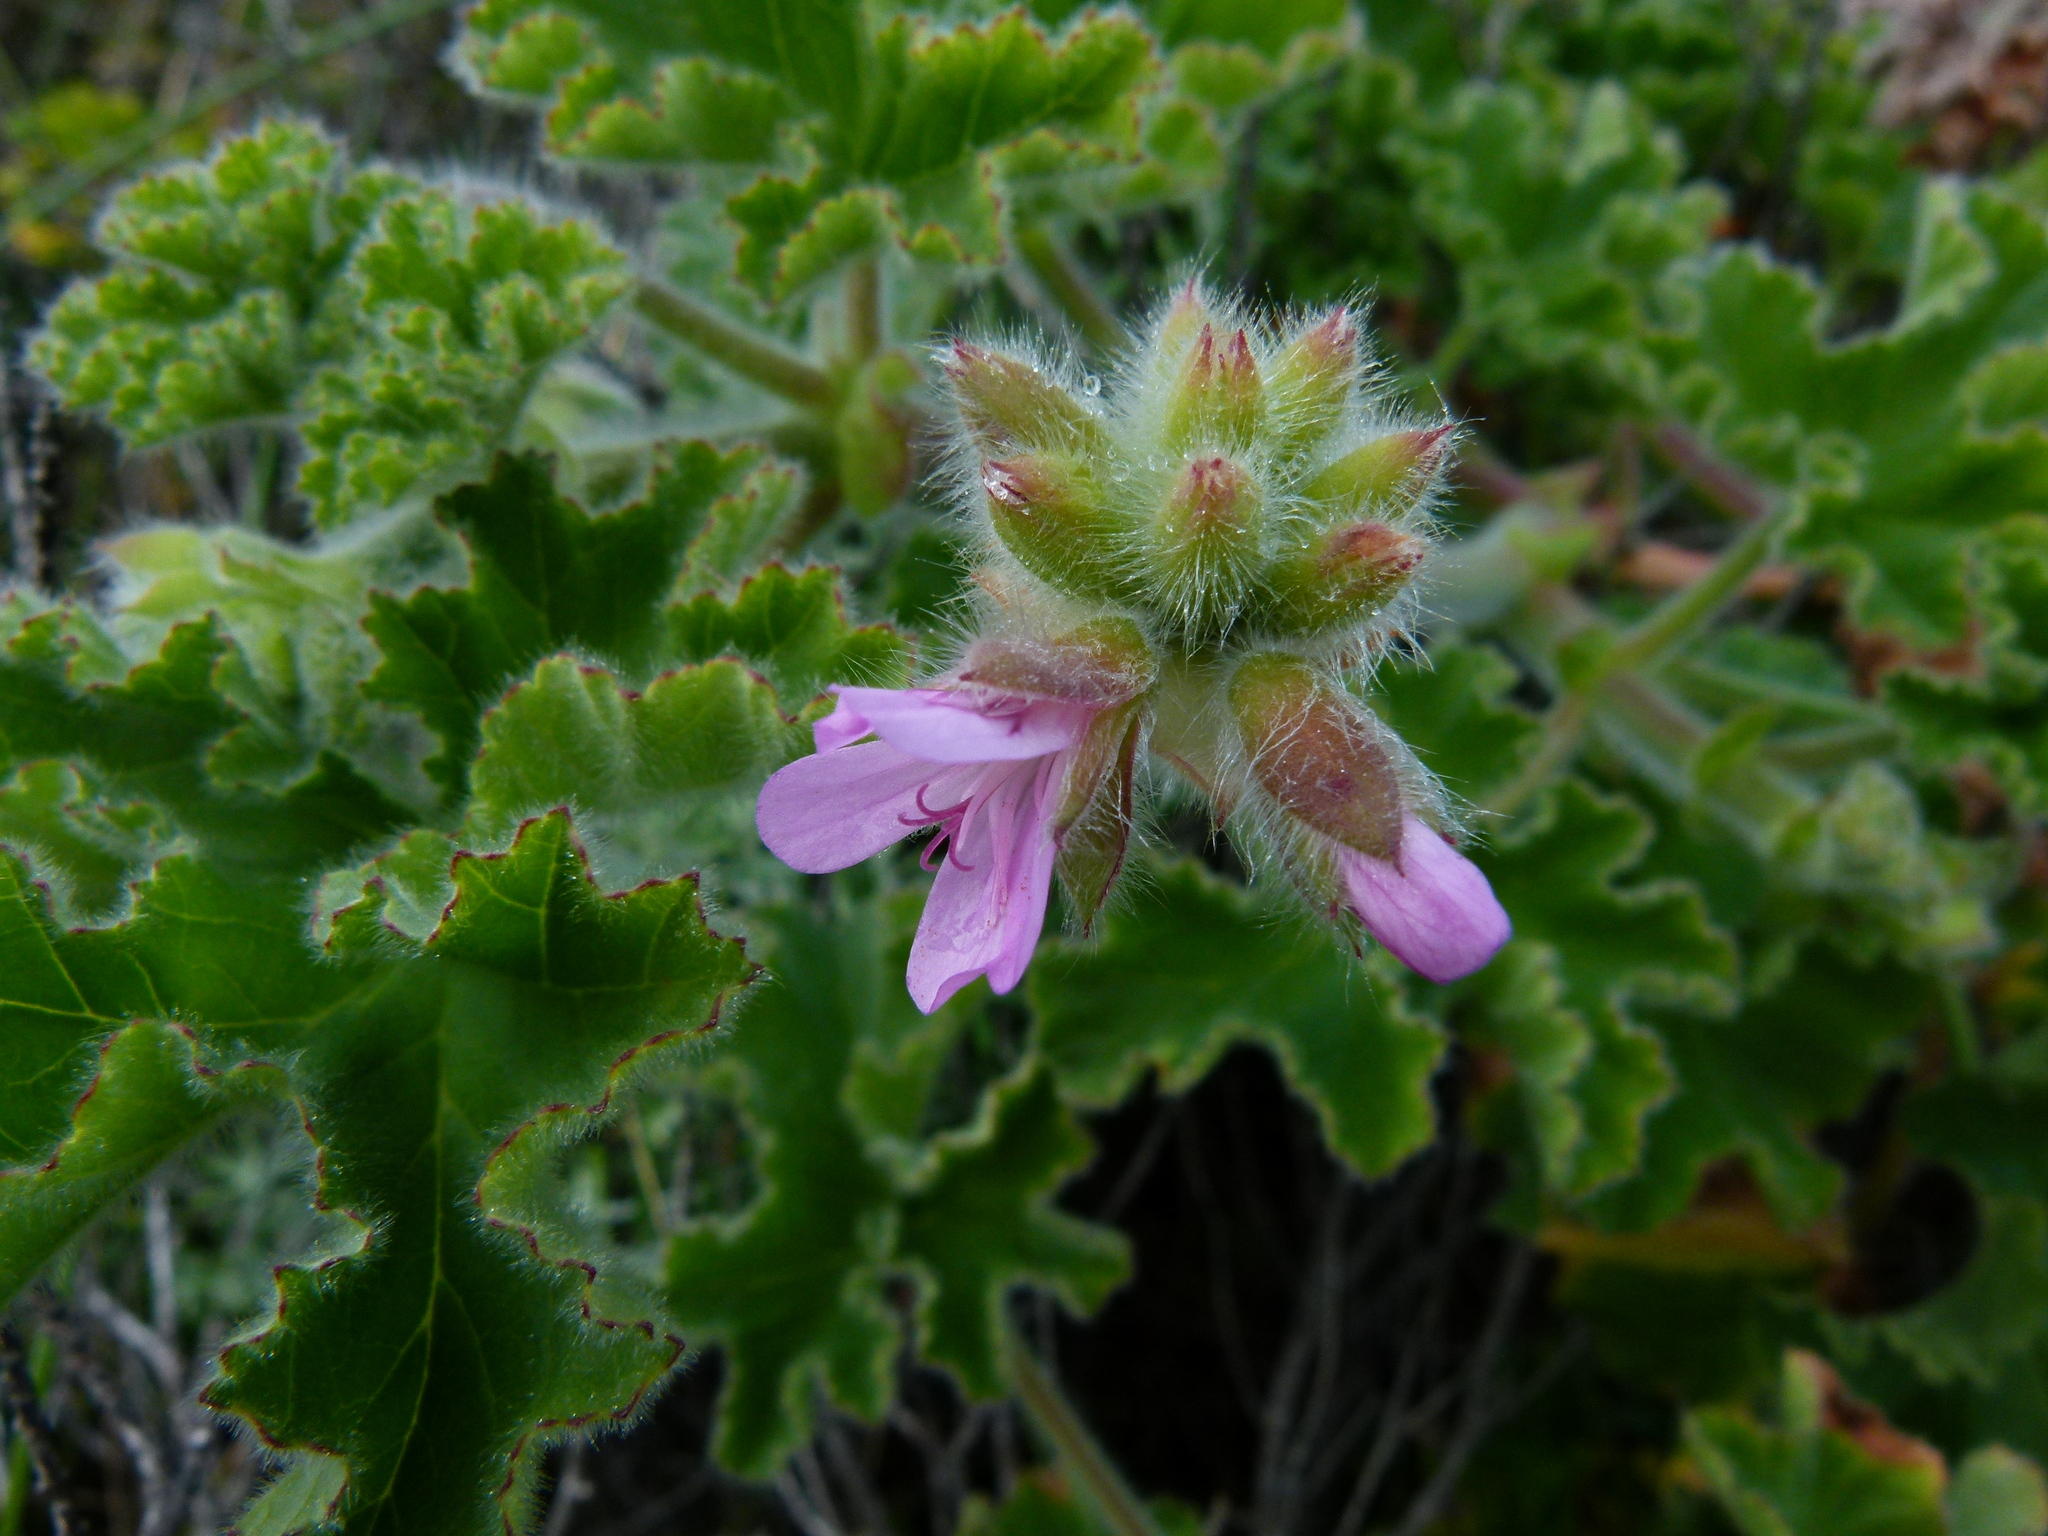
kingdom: Plantae
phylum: Tracheophyta
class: Magnoliopsida
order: Geraniales
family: Geraniaceae
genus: Pelargonium
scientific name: Pelargonium capitatum
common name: Rose scented geranium
